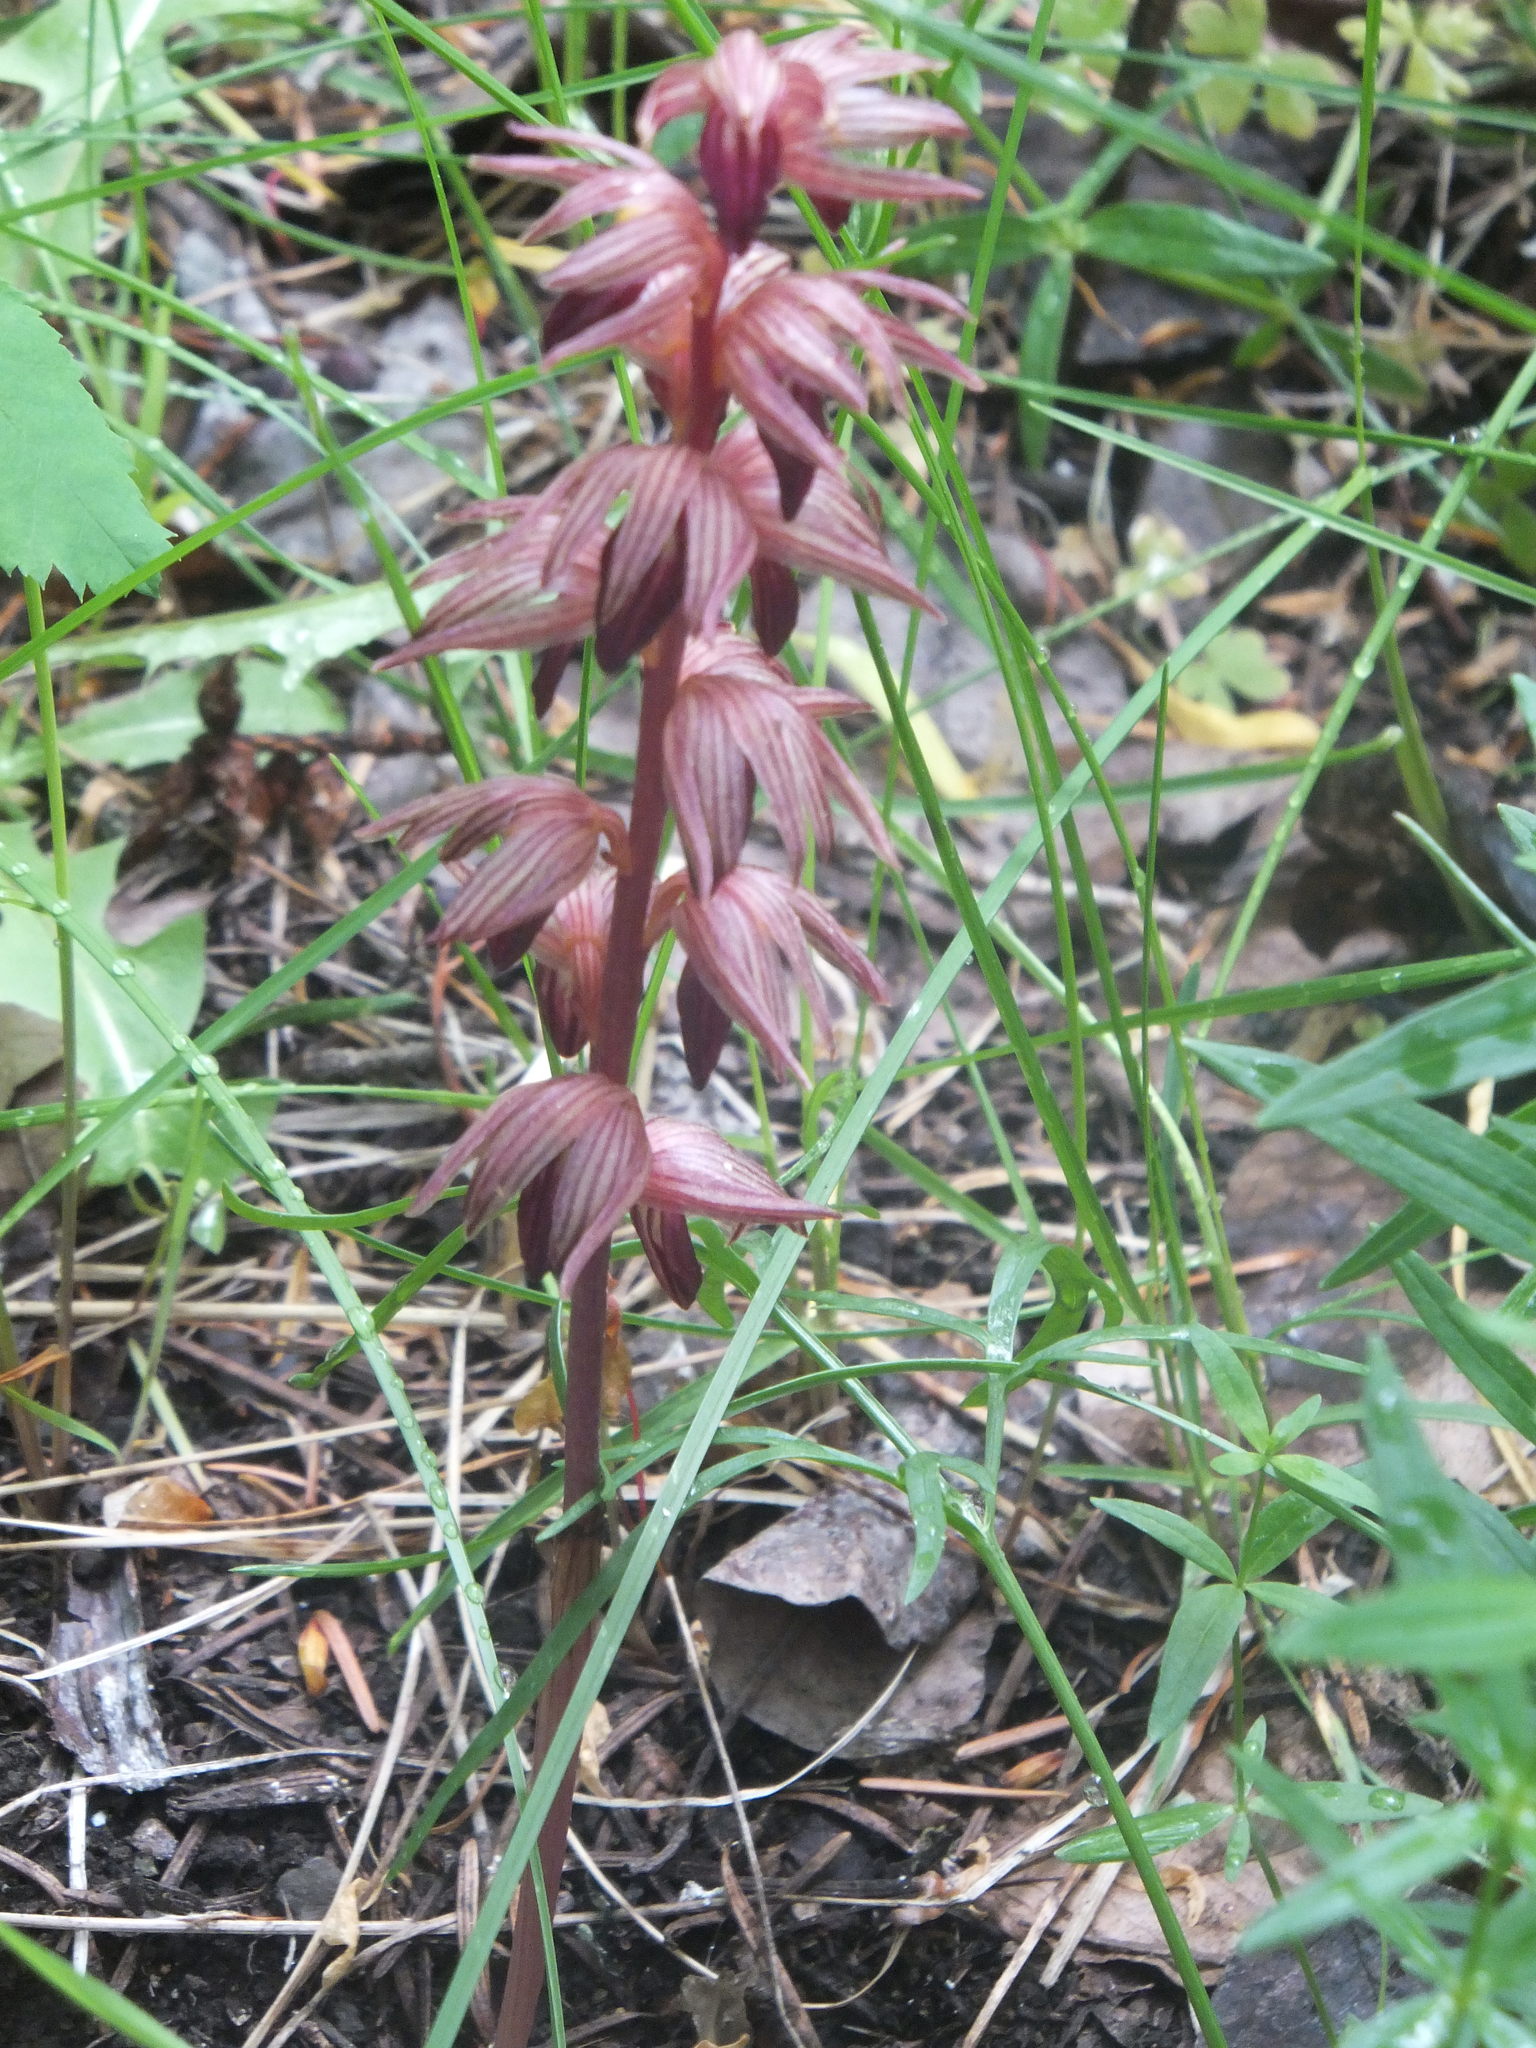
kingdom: Plantae
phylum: Tracheophyta
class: Liliopsida
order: Asparagales
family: Orchidaceae
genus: Corallorhiza
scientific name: Corallorhiza striata
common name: Hooded coralroot
